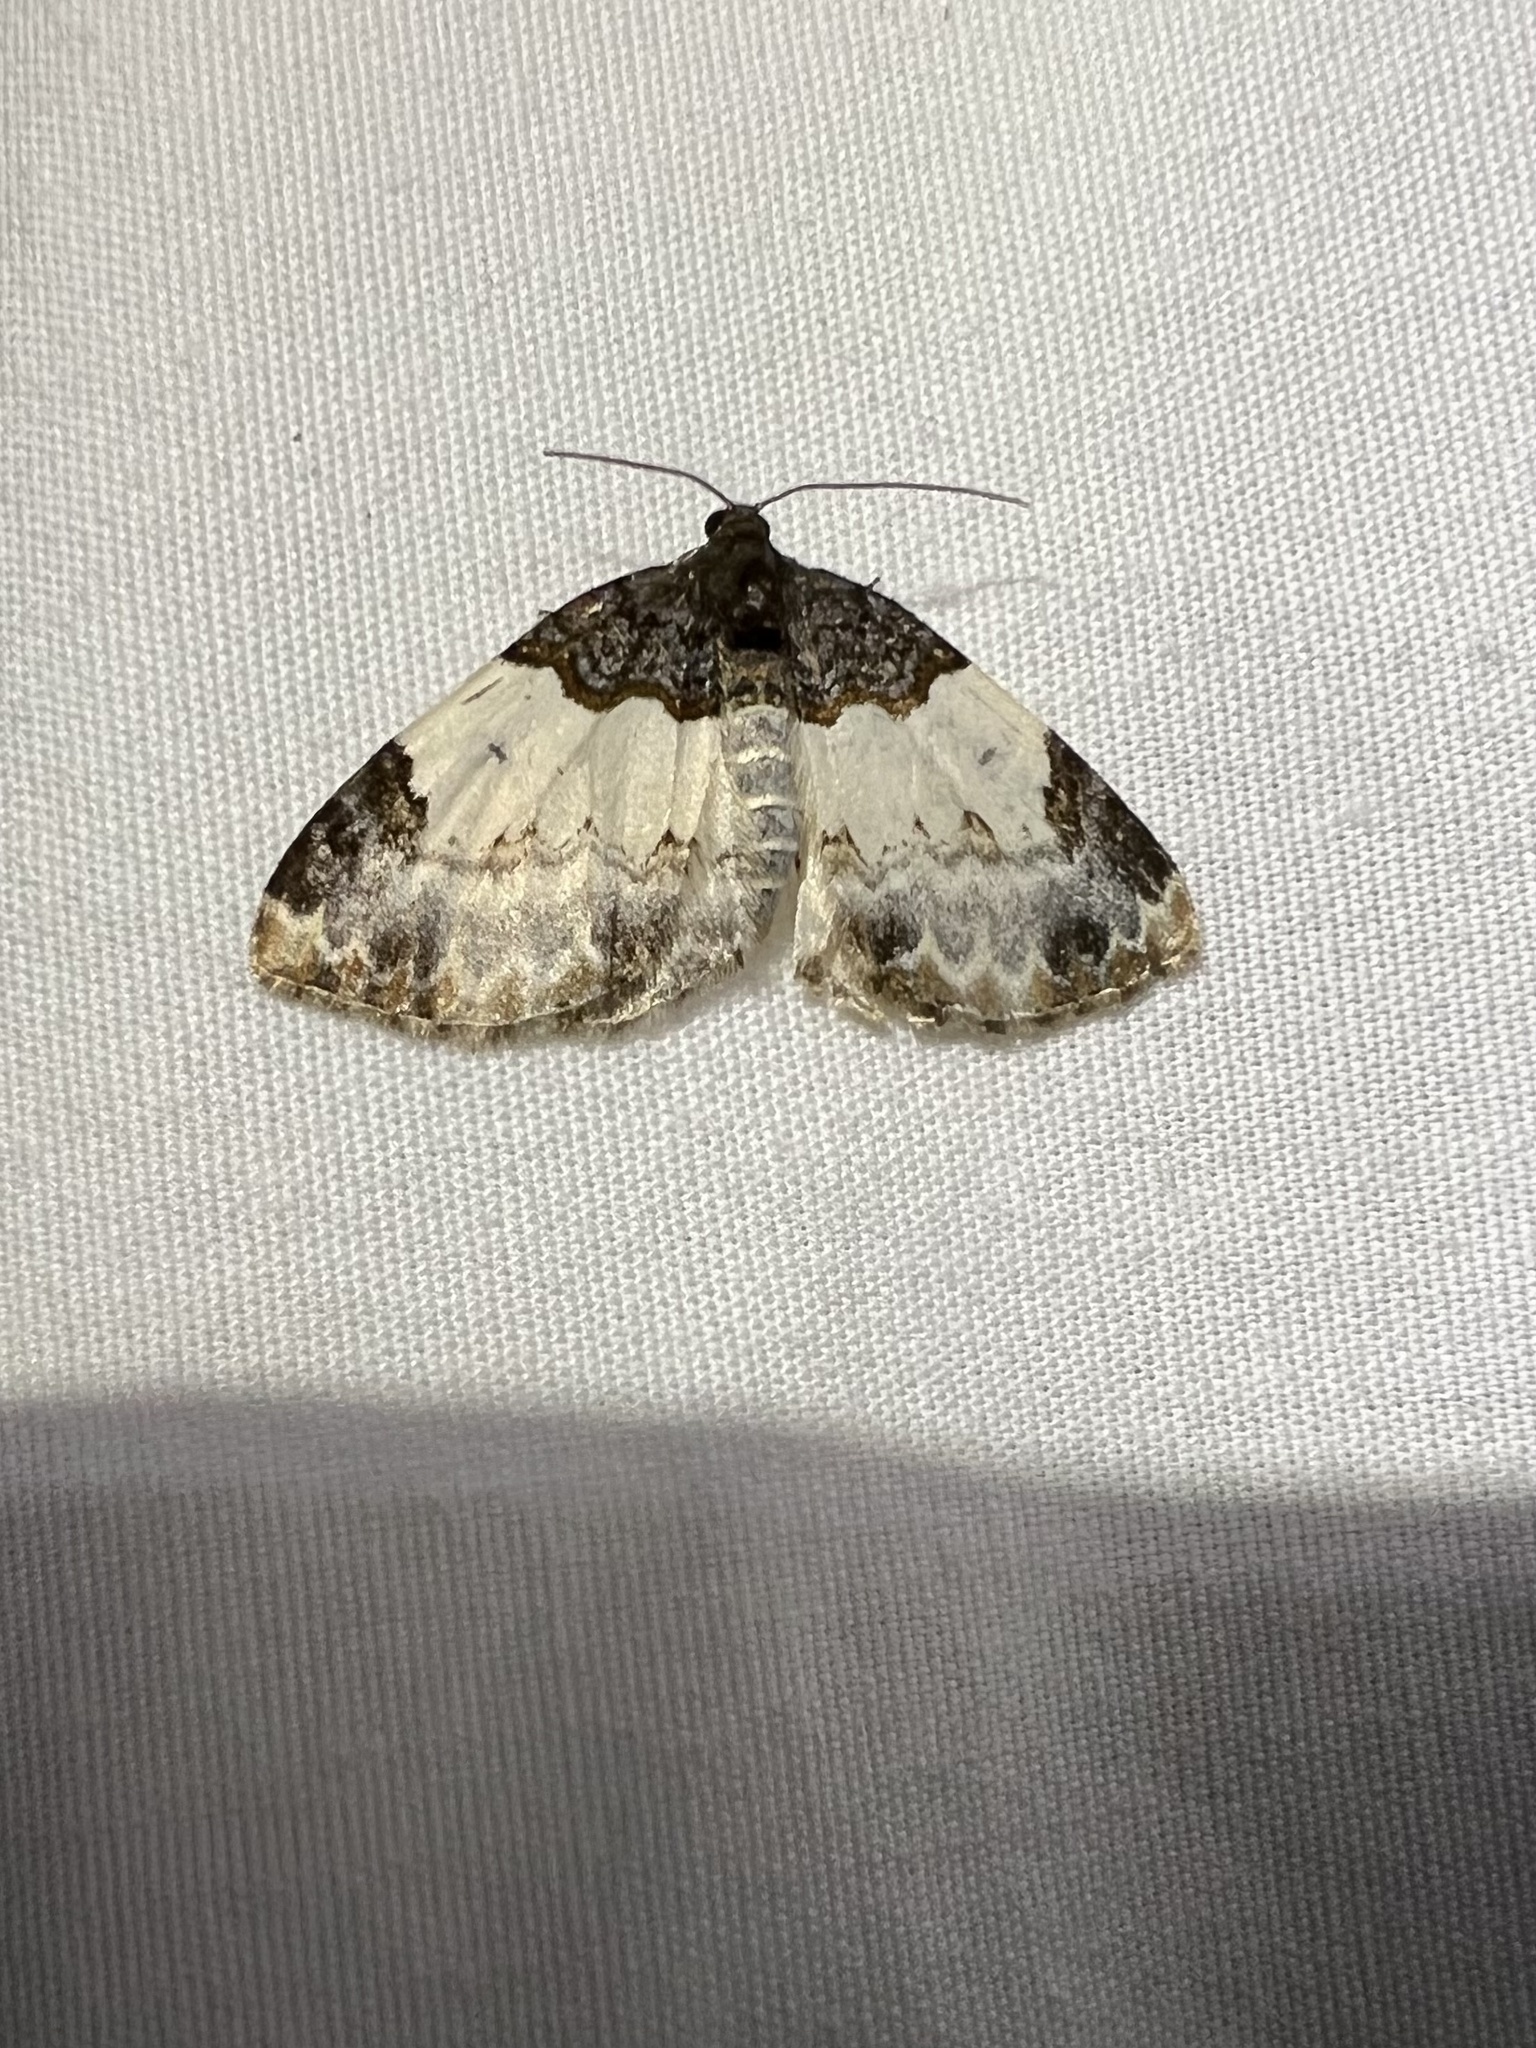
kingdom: Animalia
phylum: Arthropoda
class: Insecta
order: Lepidoptera
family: Geometridae
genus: Mesoleuca
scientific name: Mesoleuca ruficillata
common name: White-ribboned carpet moth
